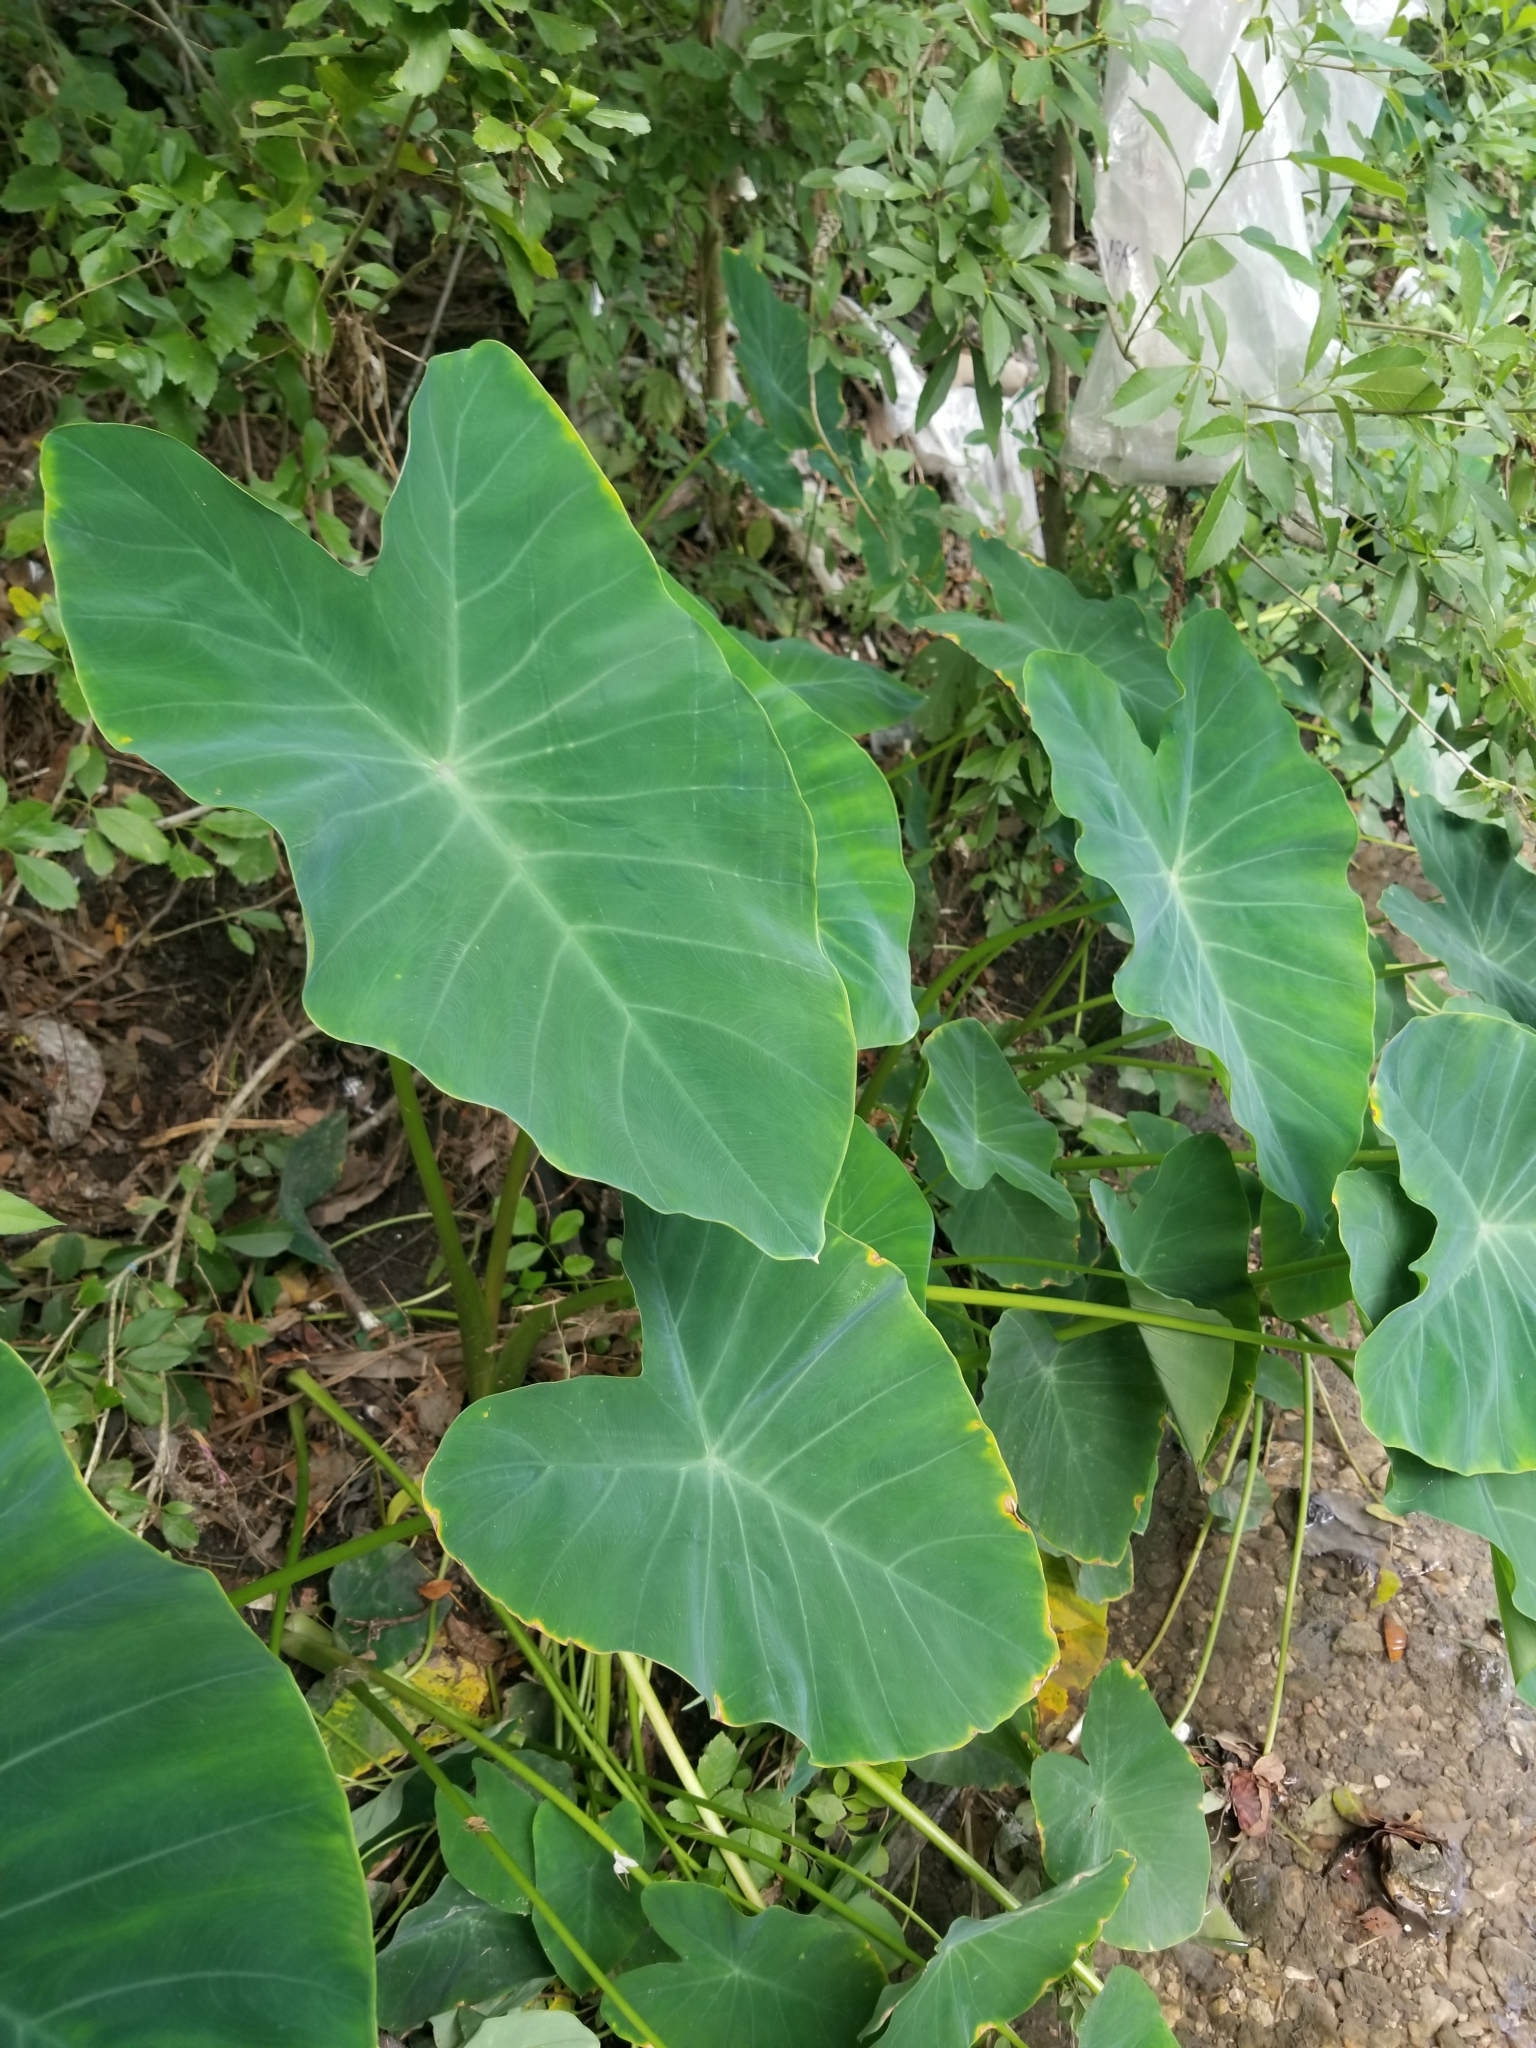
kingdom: Plantae
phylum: Tracheophyta
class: Liliopsida
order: Alismatales
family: Araceae
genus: Colocasia
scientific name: Colocasia esculenta
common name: Taro
